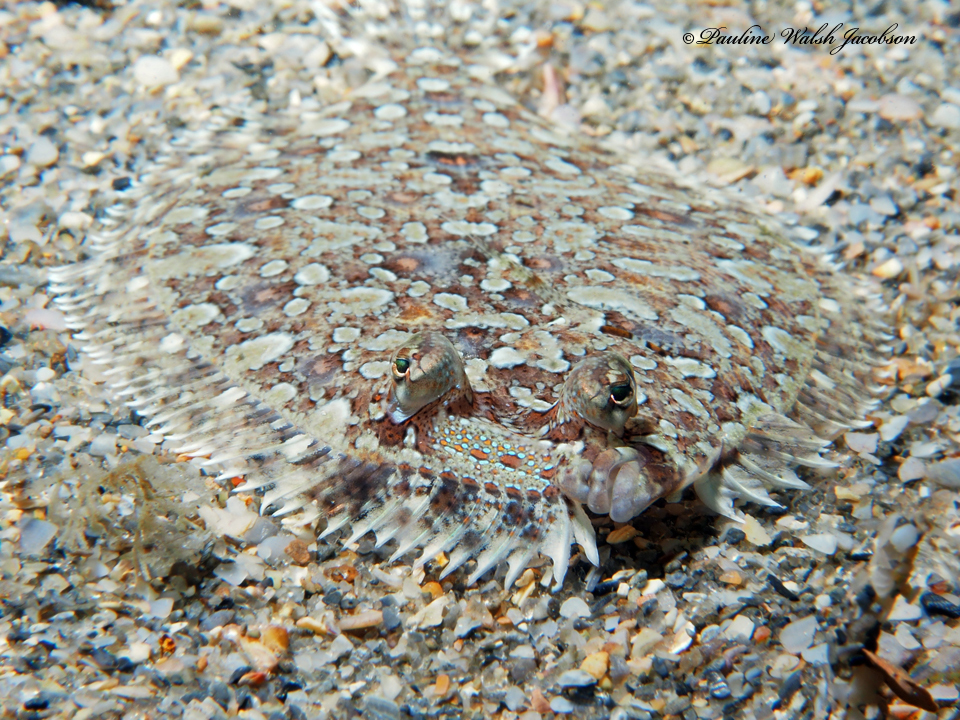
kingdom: Animalia
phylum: Chordata
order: Pleuronectiformes
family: Bothidae
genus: Bothus
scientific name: Bothus ocellatus
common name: Eyed flounder
